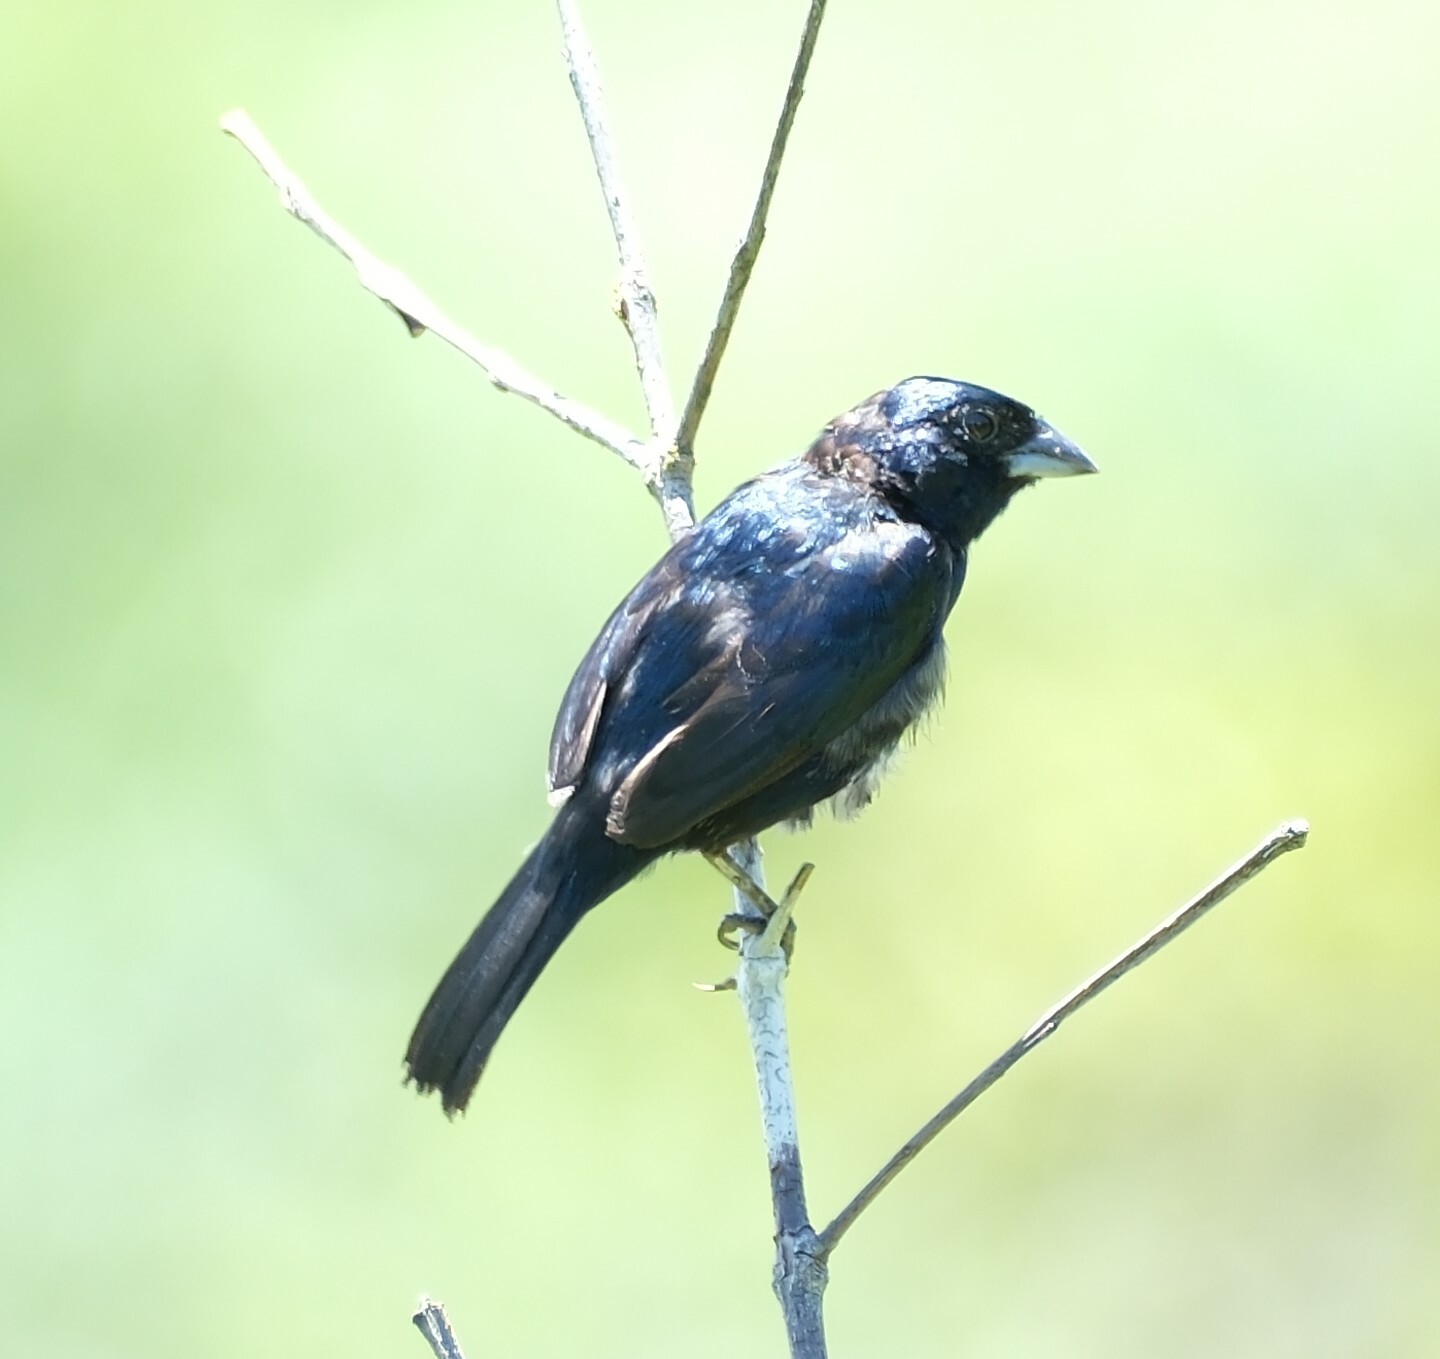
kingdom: Animalia
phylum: Chordata
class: Aves
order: Passeriformes
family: Thraupidae
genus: Volatinia
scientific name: Volatinia jacarina
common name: Blue-black grassquit
